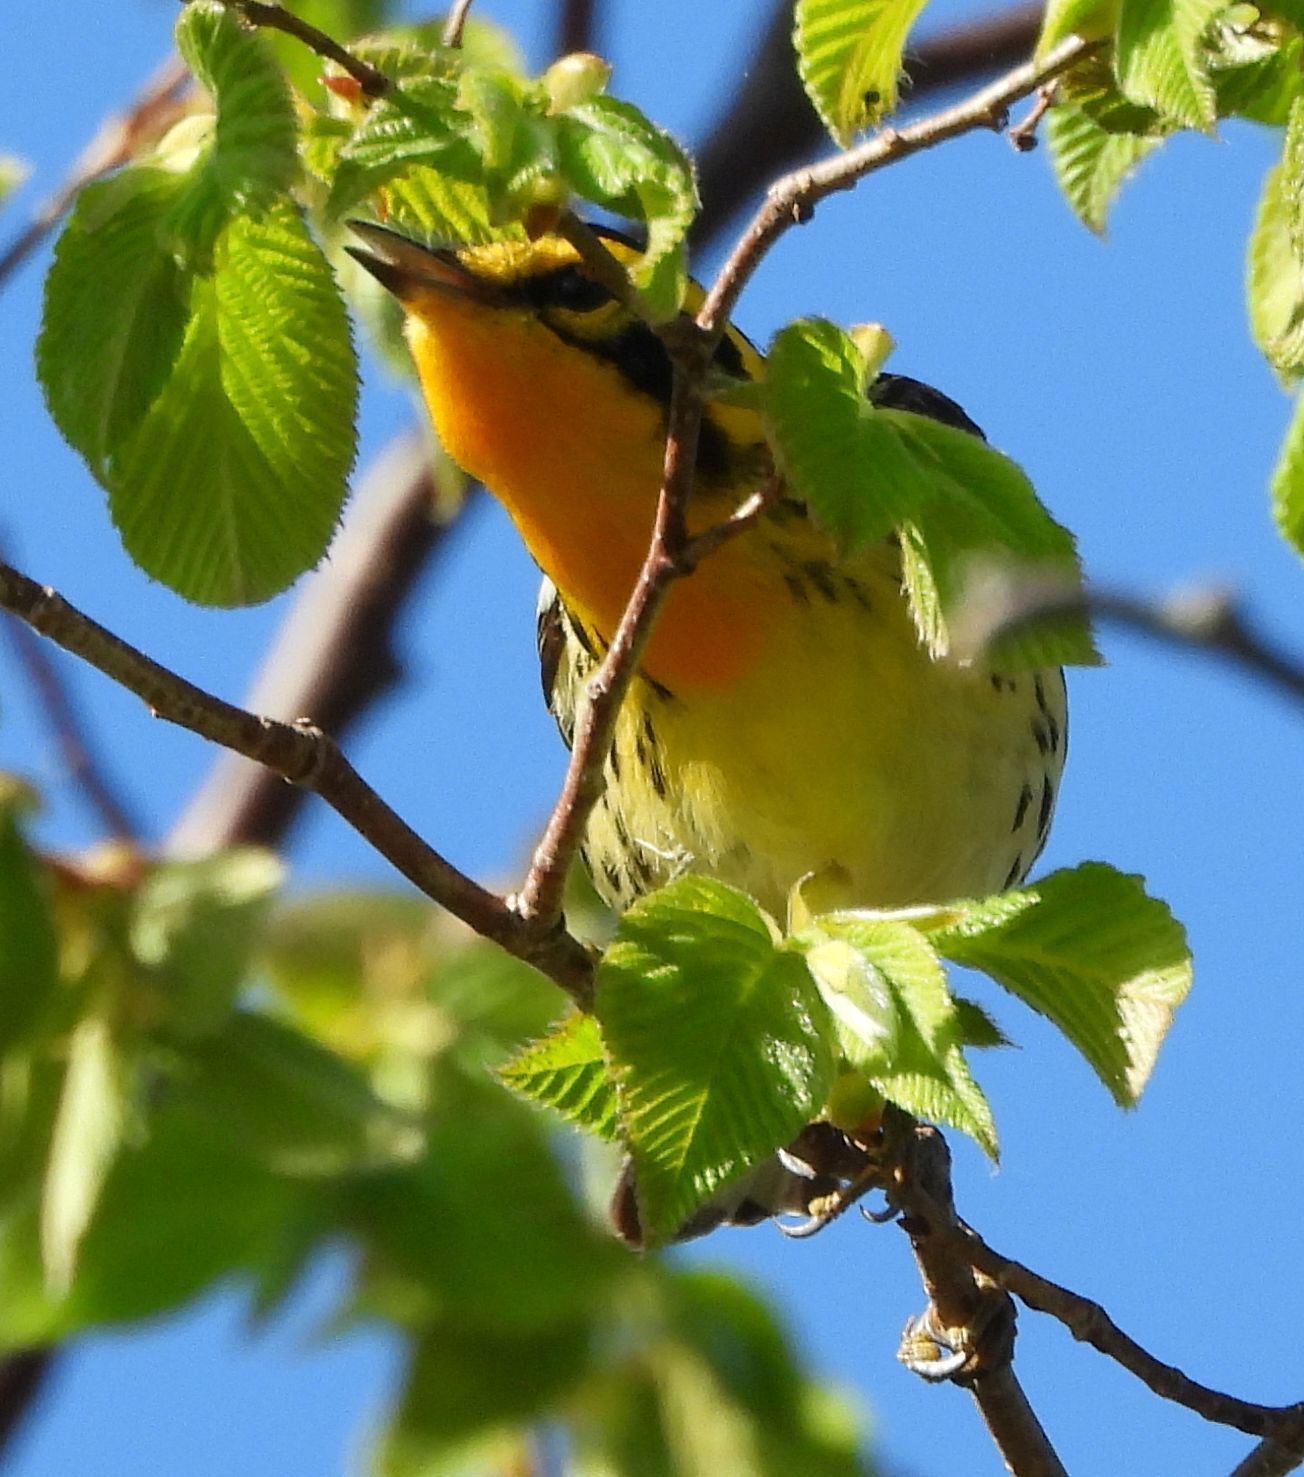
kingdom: Animalia
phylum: Chordata
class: Aves
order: Passeriformes
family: Parulidae
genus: Setophaga
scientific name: Setophaga fusca
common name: Blackburnian warbler
